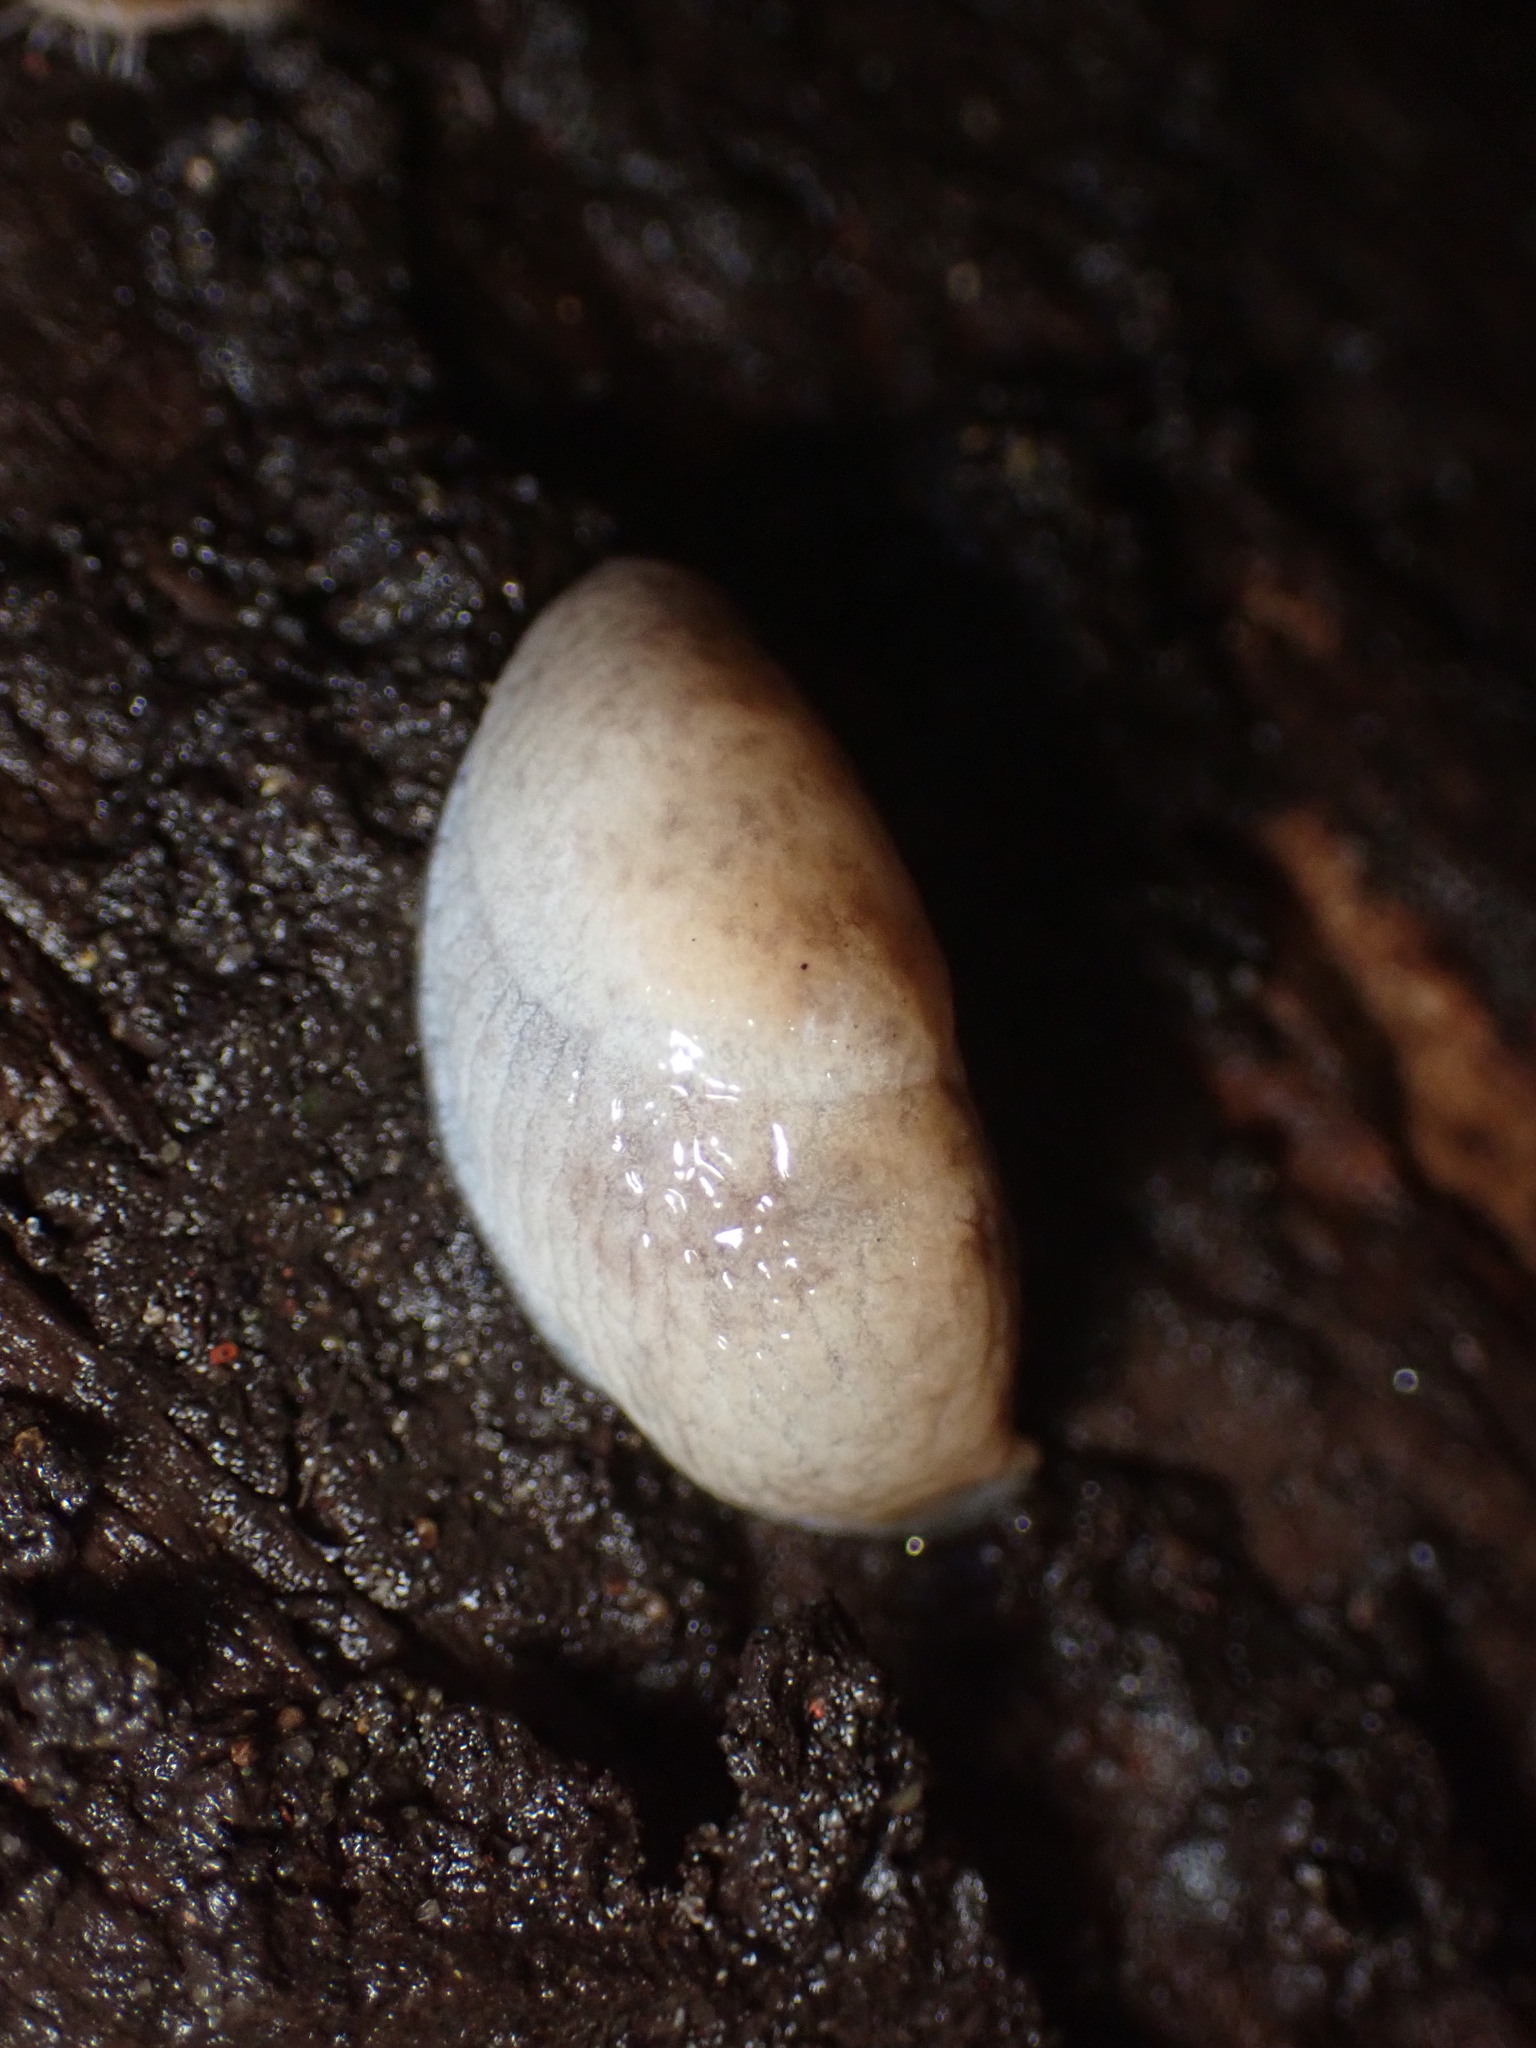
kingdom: Animalia
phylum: Mollusca
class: Gastropoda
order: Stylommatophora
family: Agriolimacidae
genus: Deroceras
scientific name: Deroceras reticulatum
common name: Gray field slug
